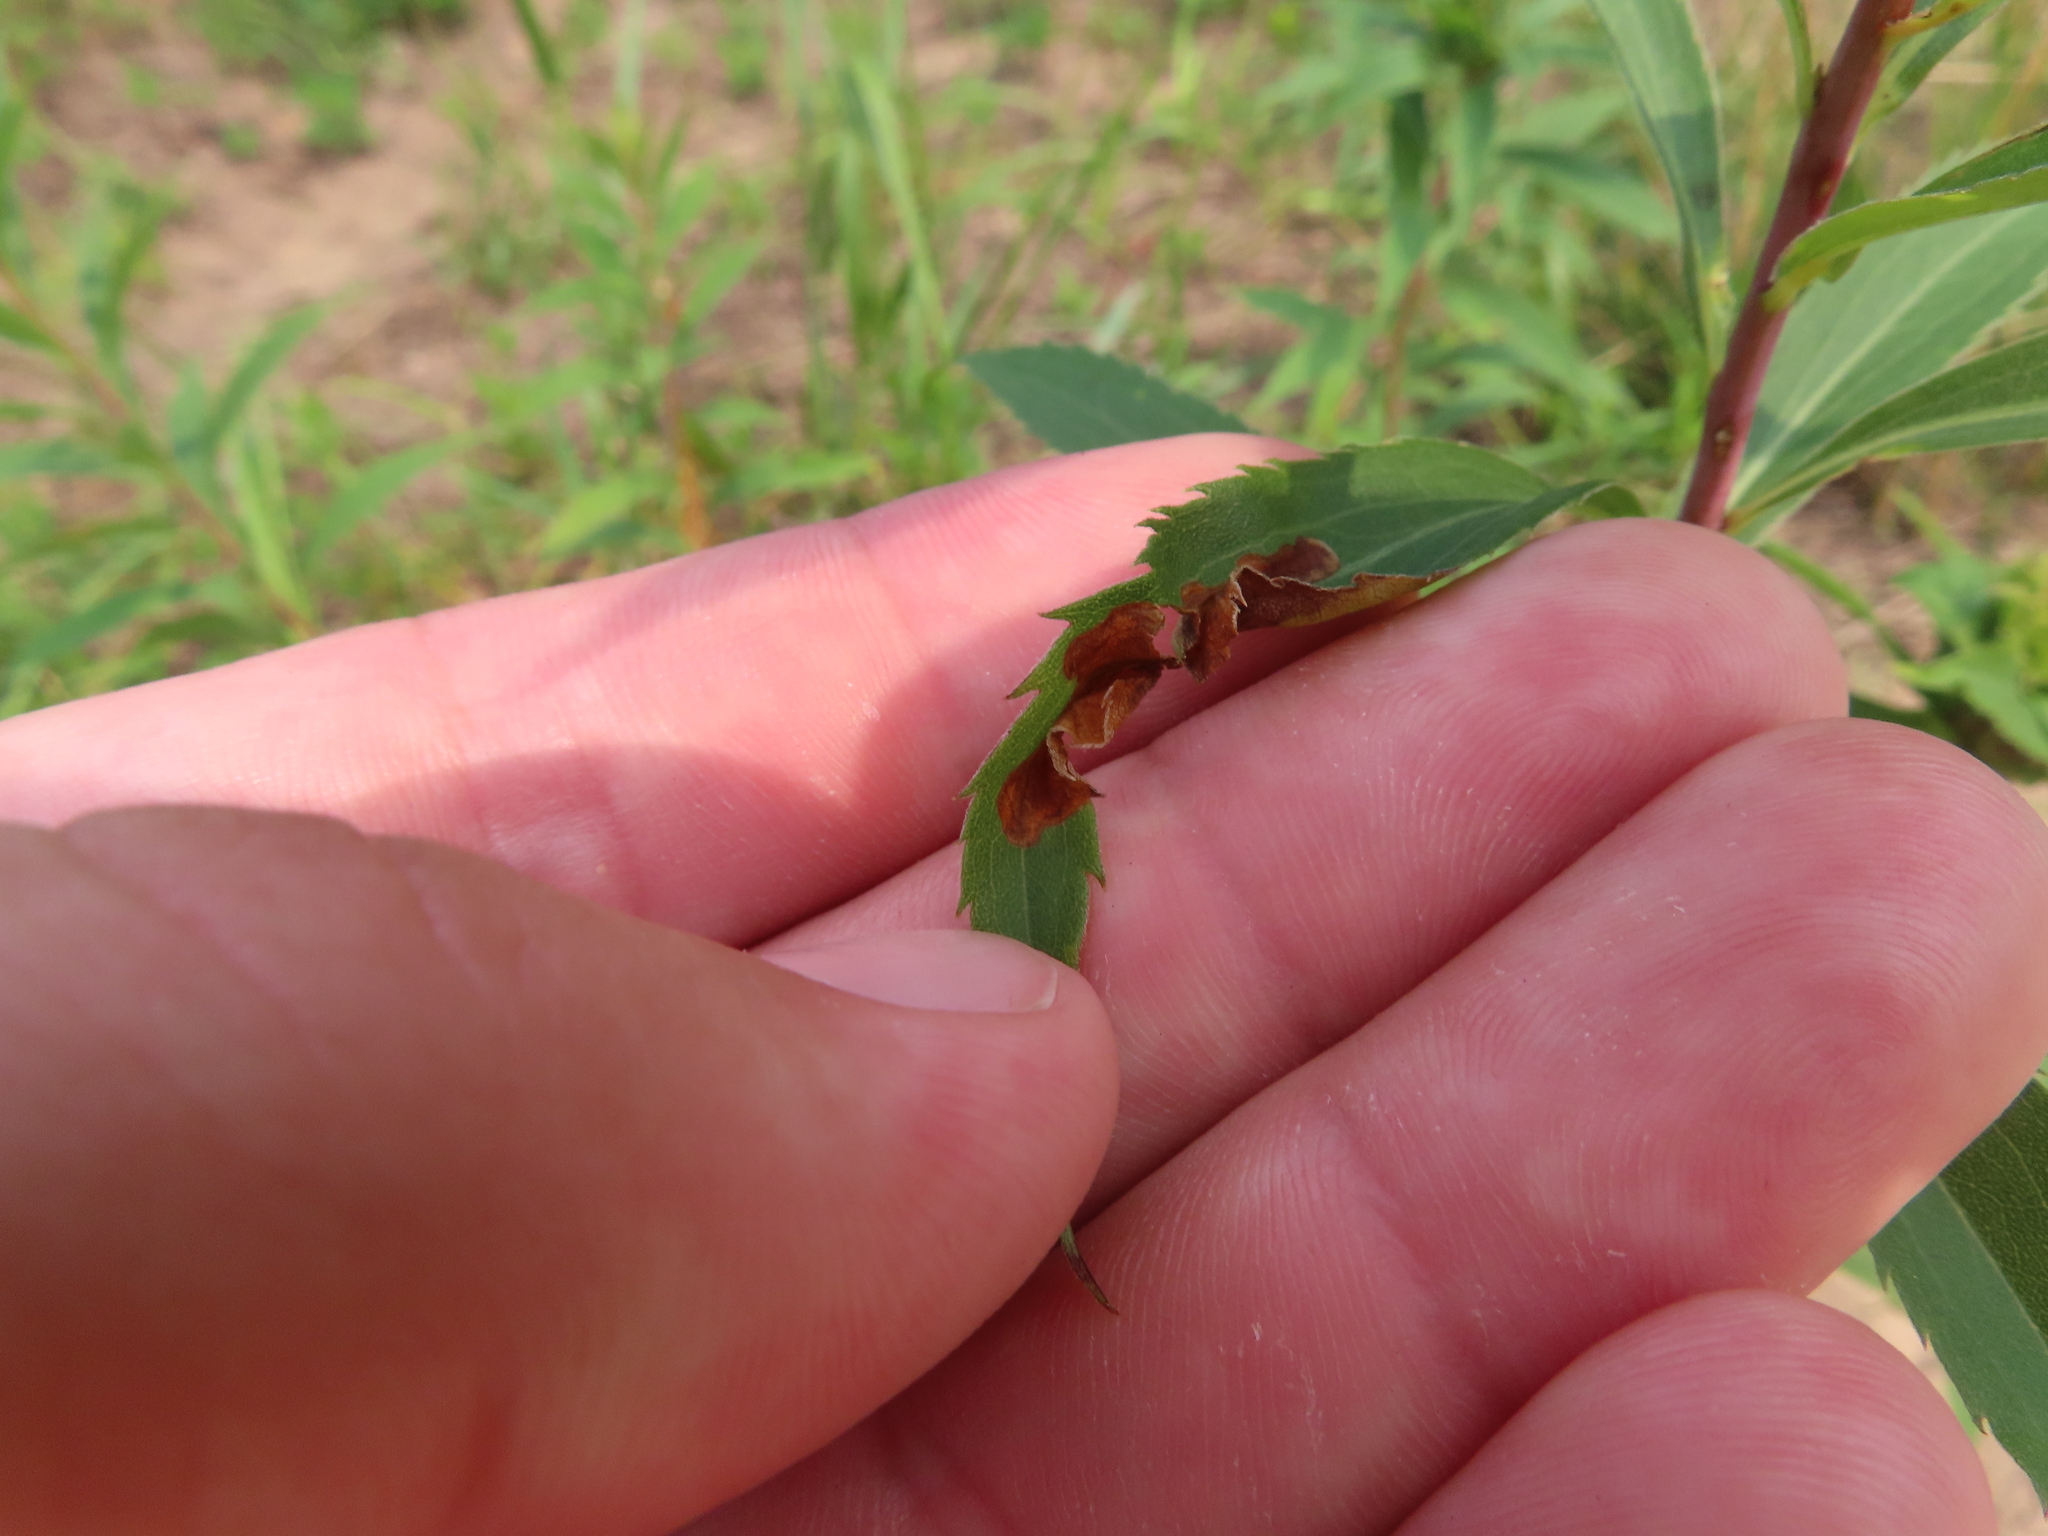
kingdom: Animalia
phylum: Arthropoda
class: Insecta
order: Diptera
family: Agromyzidae
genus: Nemorimyza
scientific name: Nemorimyza posticata
